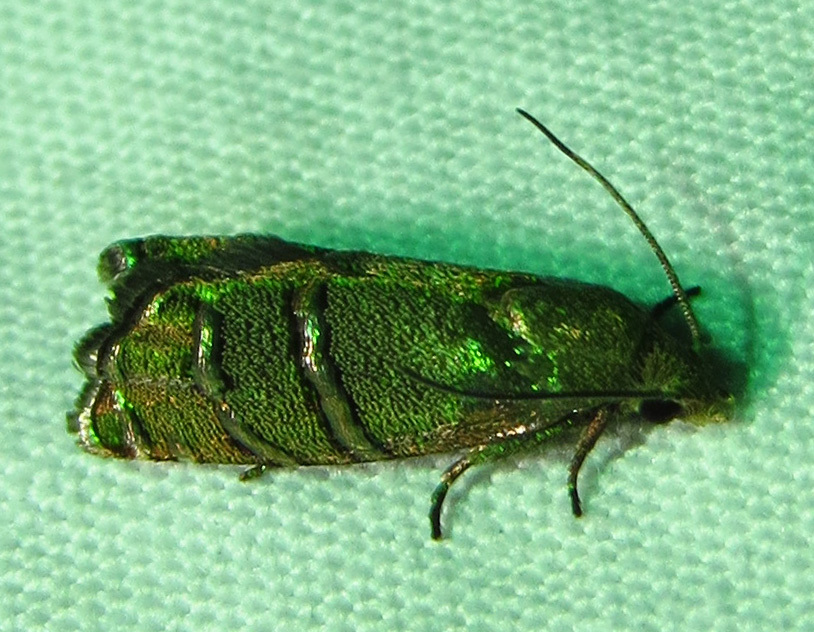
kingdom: Animalia
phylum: Arthropoda
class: Insecta
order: Lepidoptera
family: Tortricidae
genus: Cydia
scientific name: Cydia toreuta
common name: Eastern pine seedworm moth
